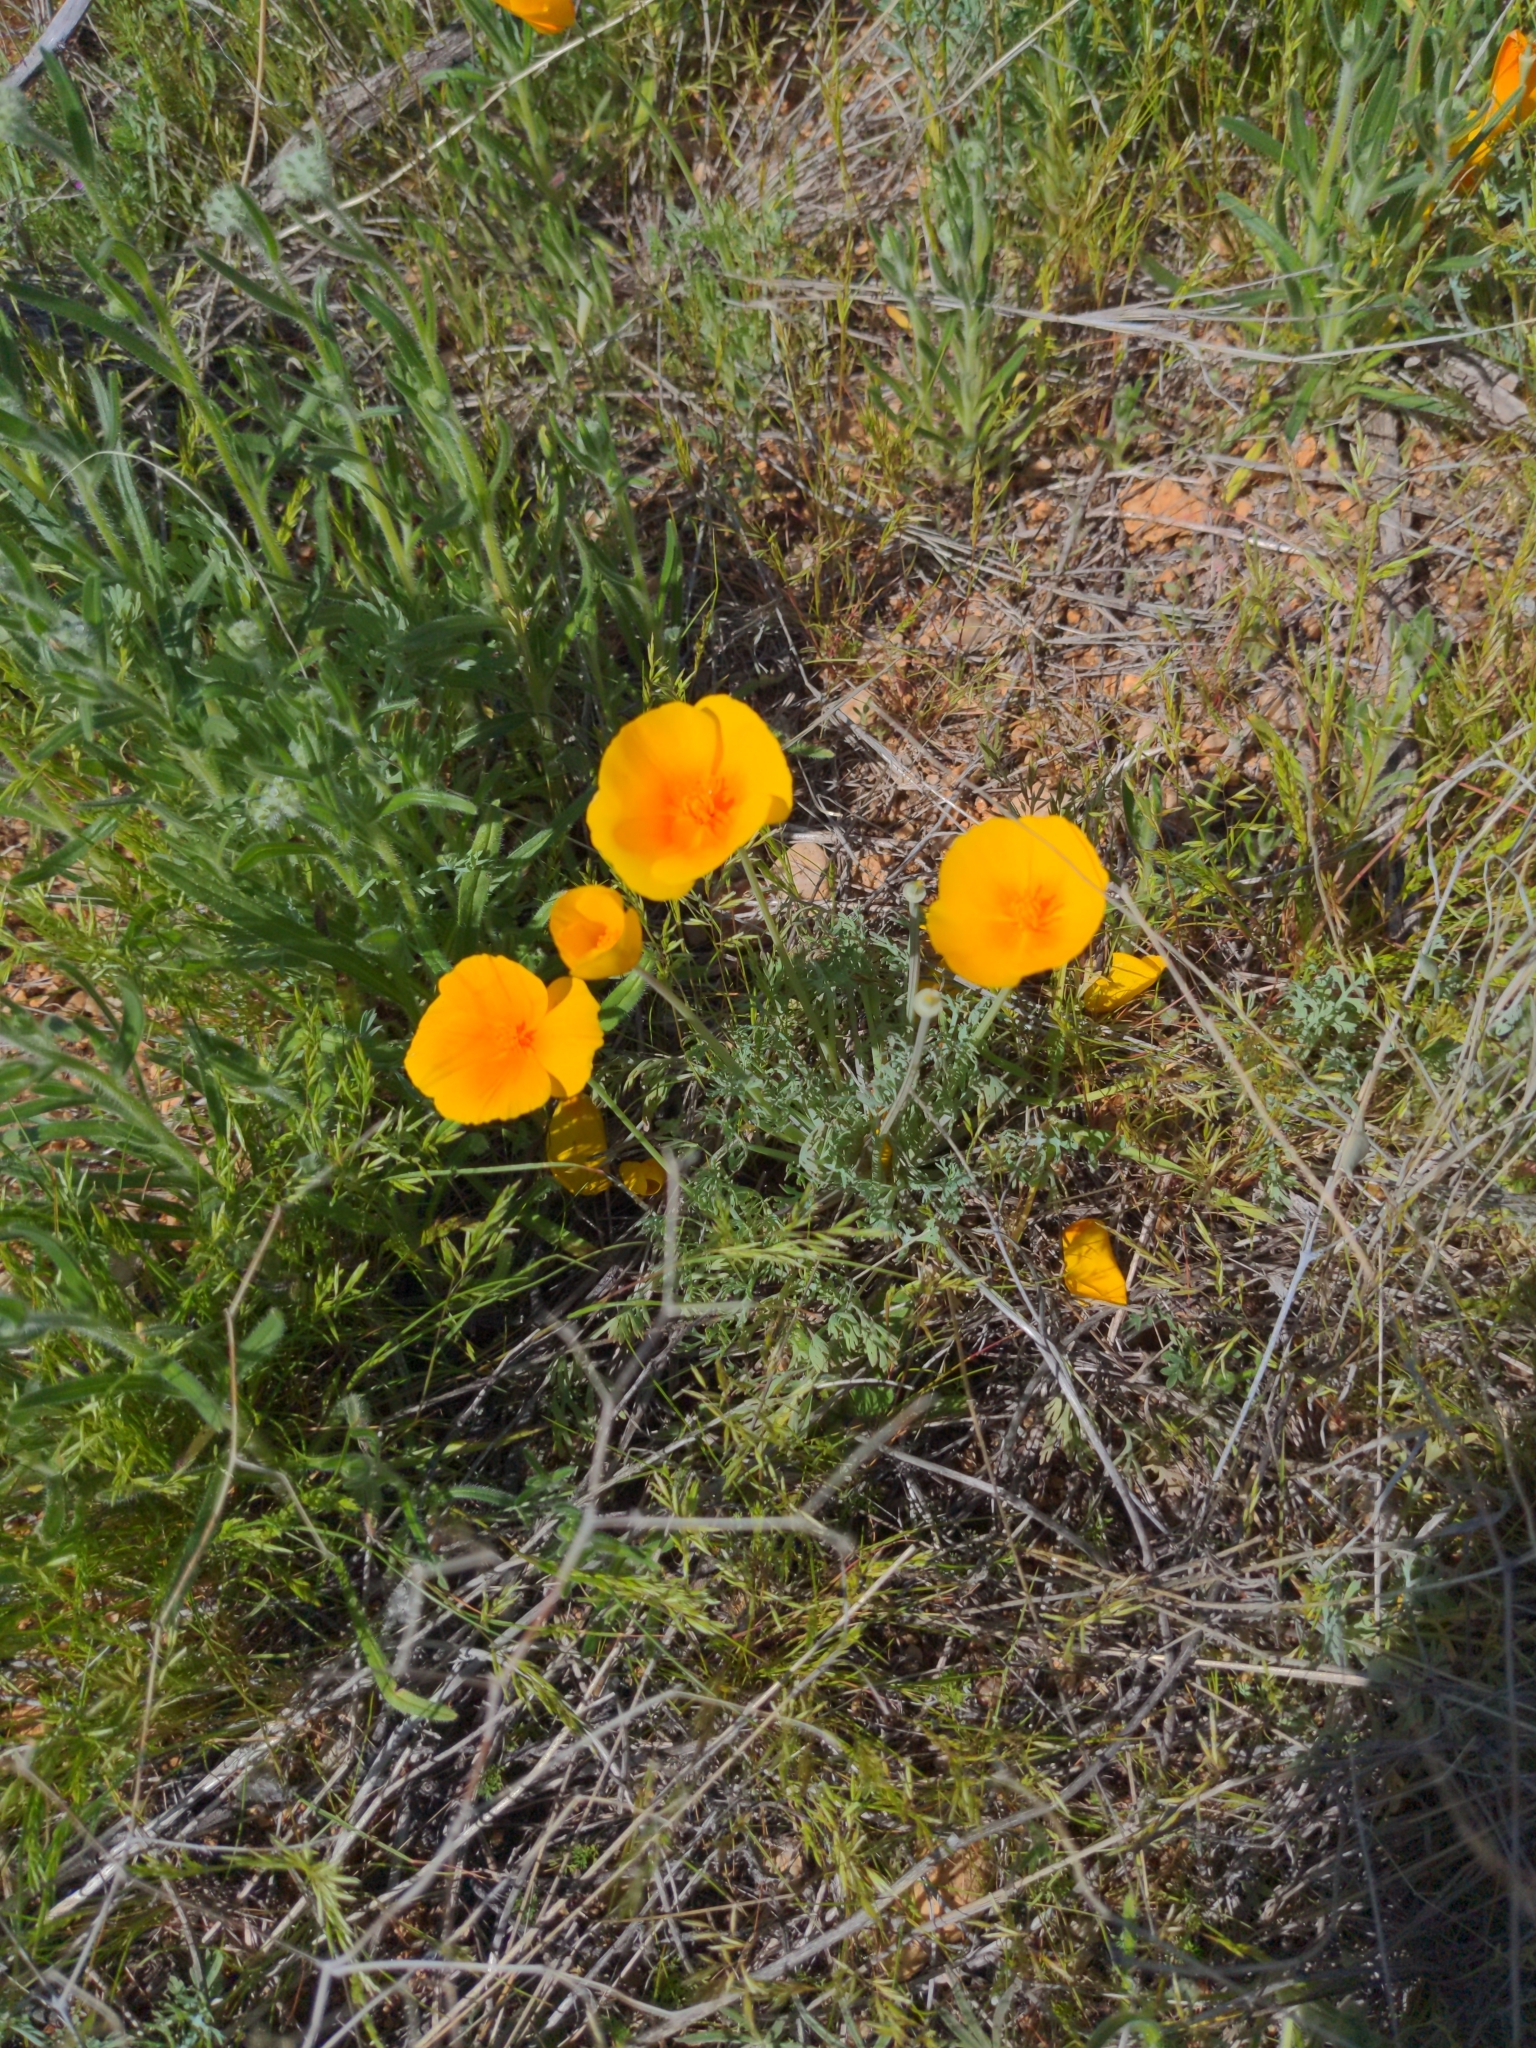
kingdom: Plantae
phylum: Tracheophyta
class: Magnoliopsida
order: Ranunculales
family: Papaveraceae
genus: Eschscholzia
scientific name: Eschscholzia californica
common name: California poppy
